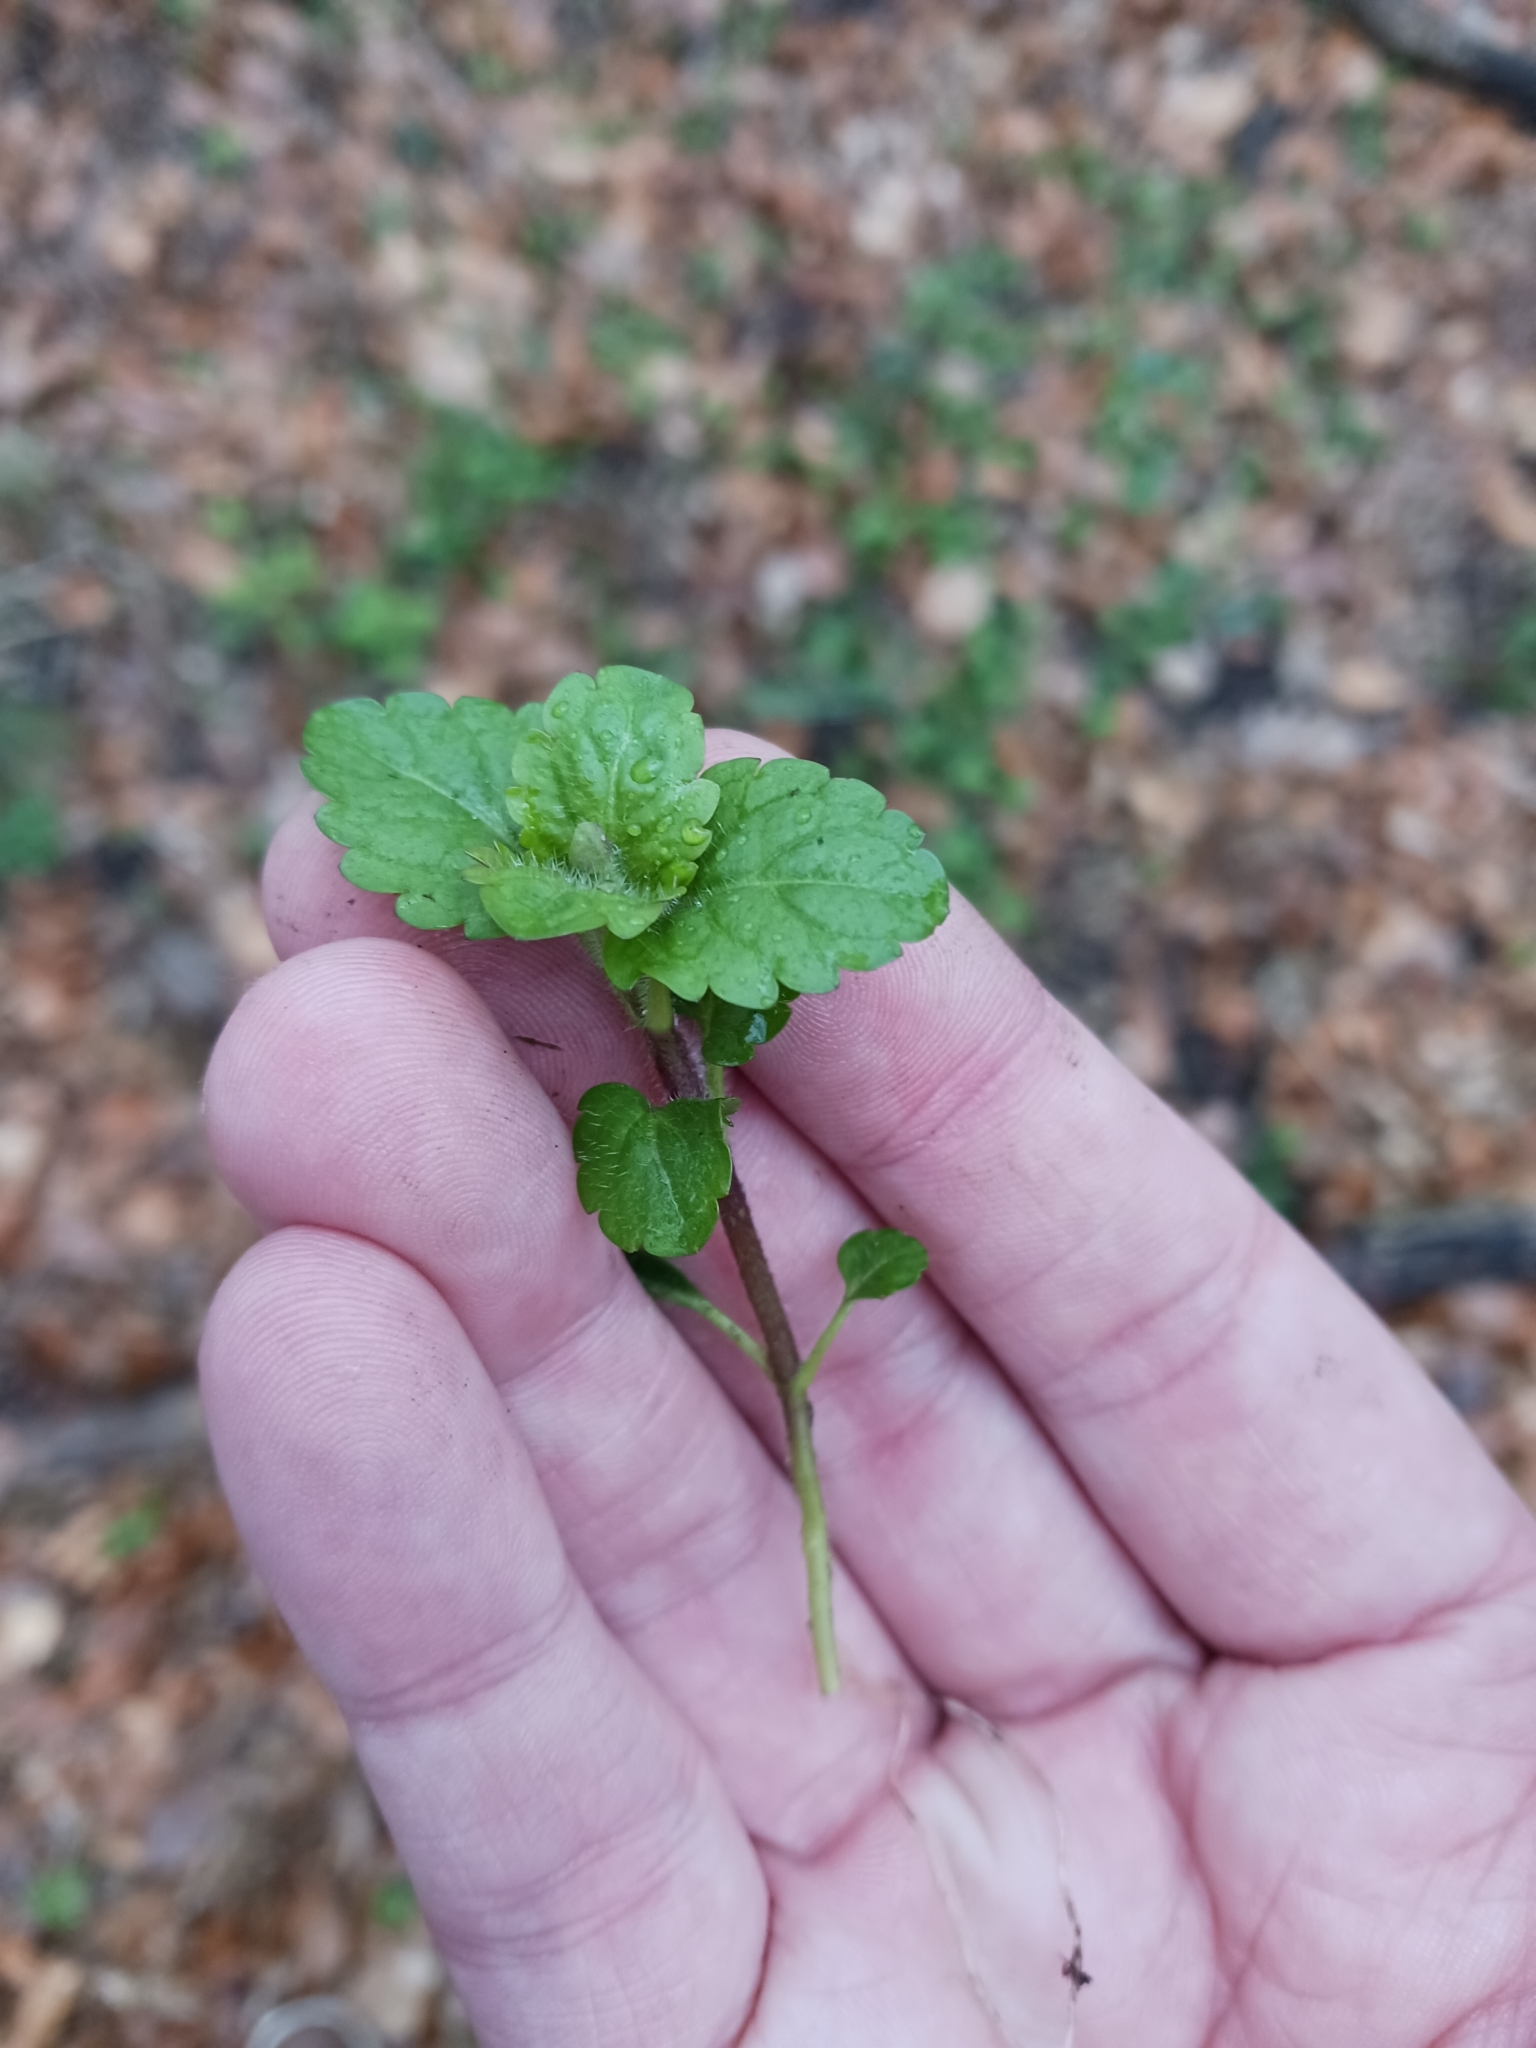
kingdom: Plantae
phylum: Tracheophyta
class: Magnoliopsida
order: Lamiales
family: Plantaginaceae
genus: Veronica
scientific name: Veronica montana
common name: Wood speedwell
